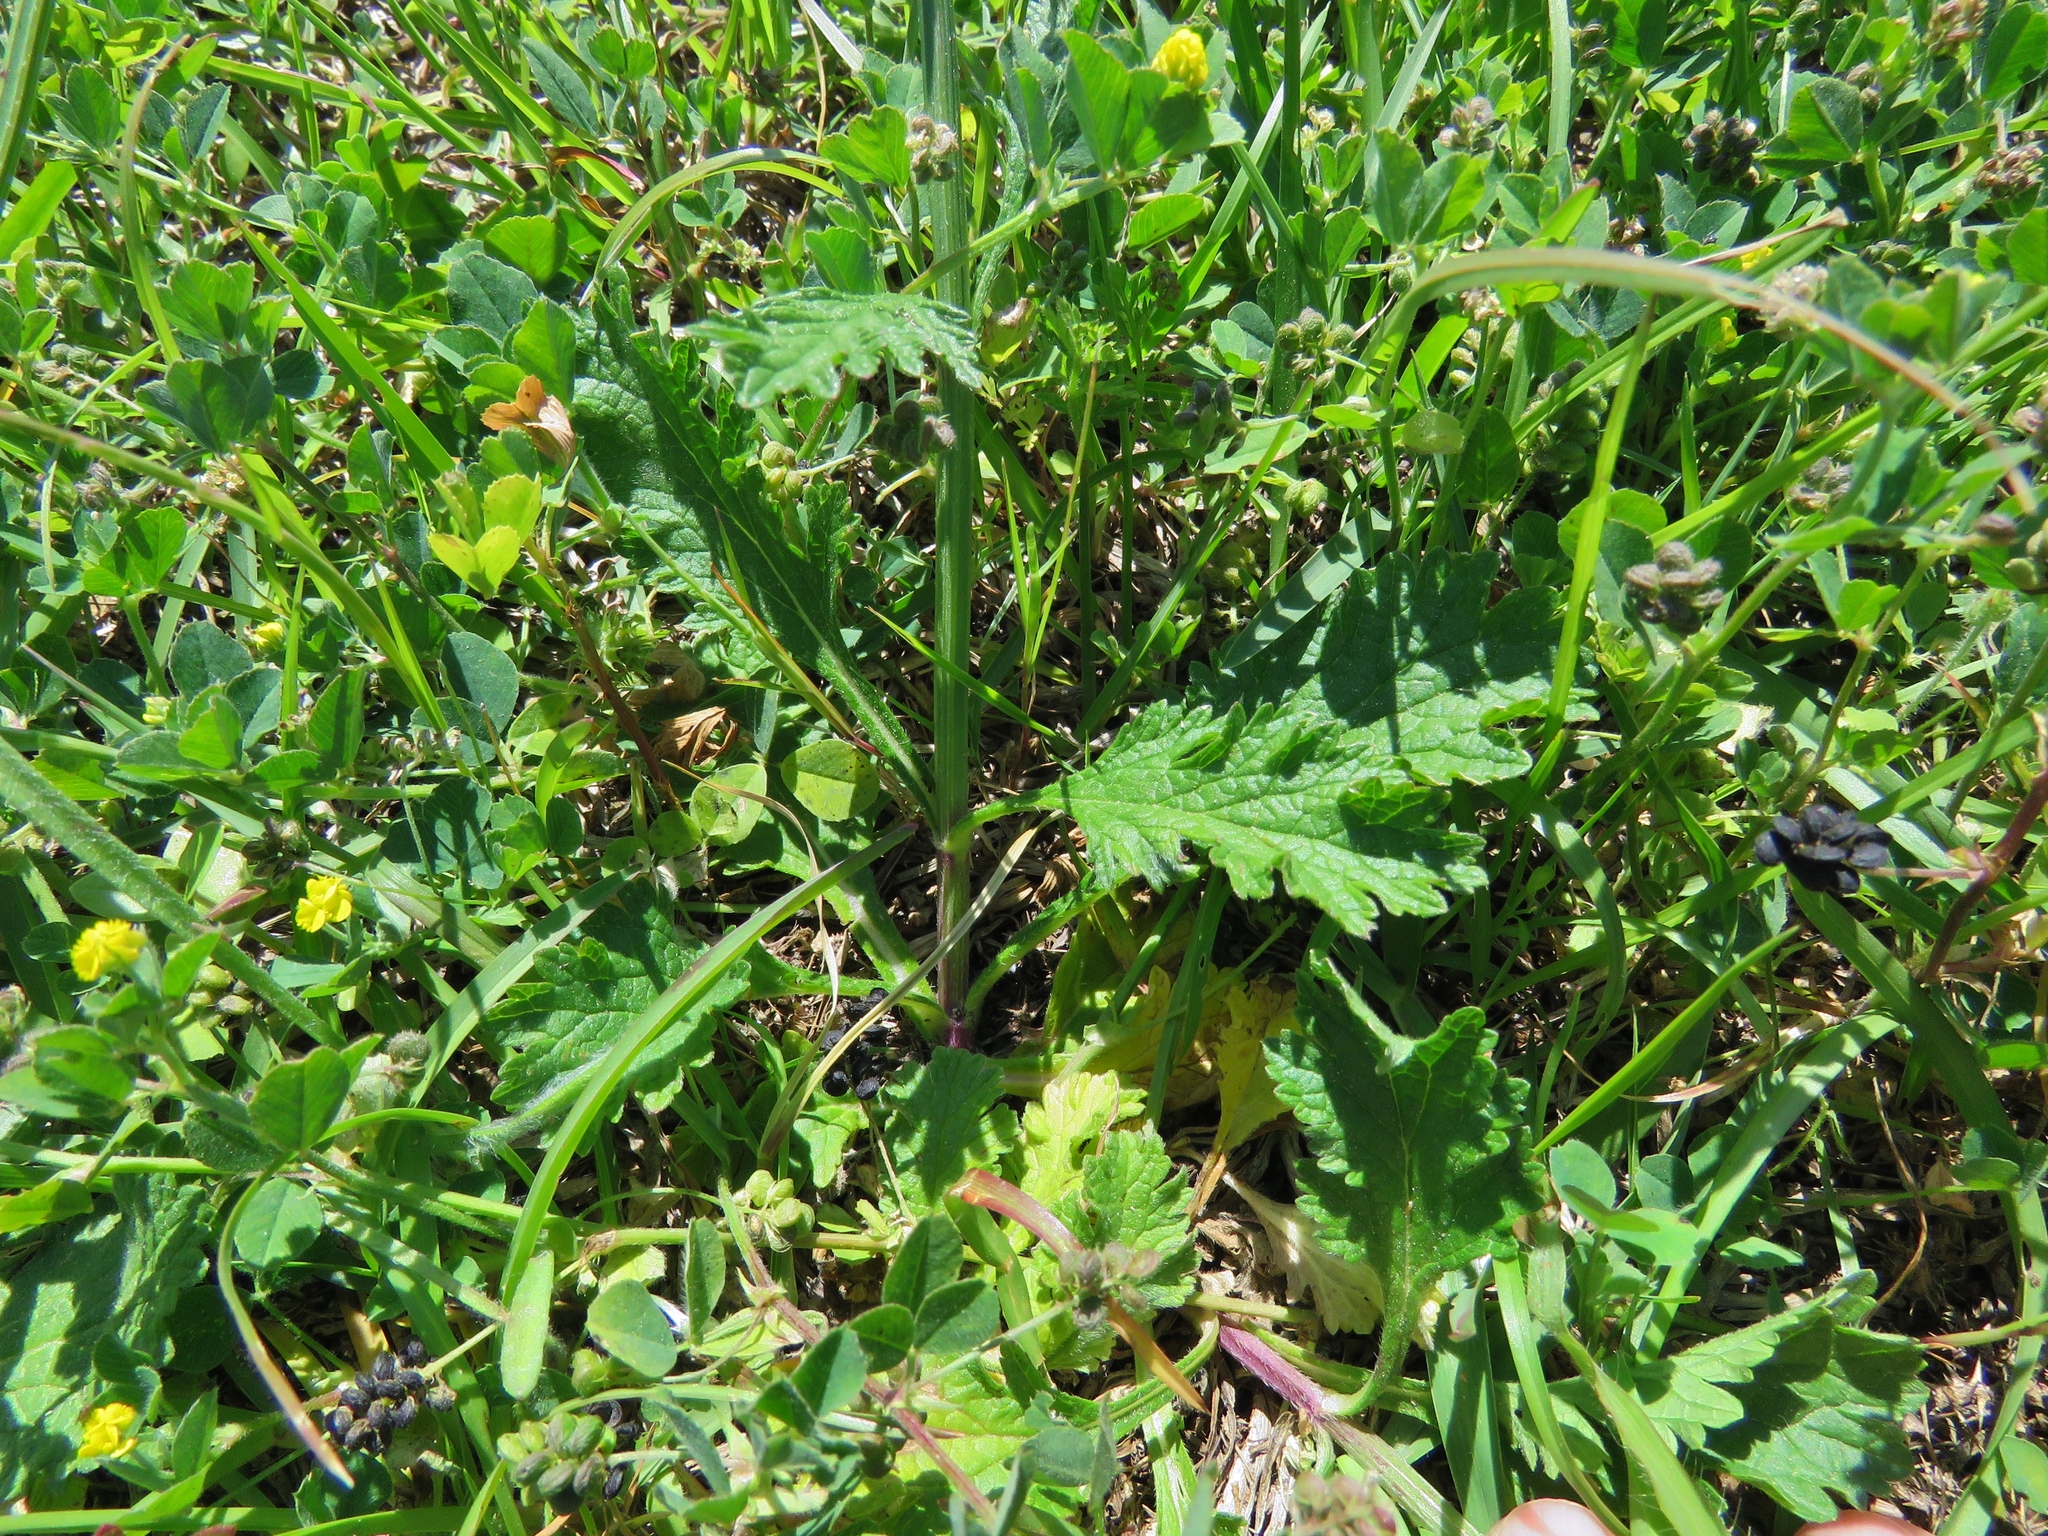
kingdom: Plantae
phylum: Tracheophyta
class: Magnoliopsida
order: Lamiales
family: Verbenaceae
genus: Verbena
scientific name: Verbena halei
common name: Texas vervain
